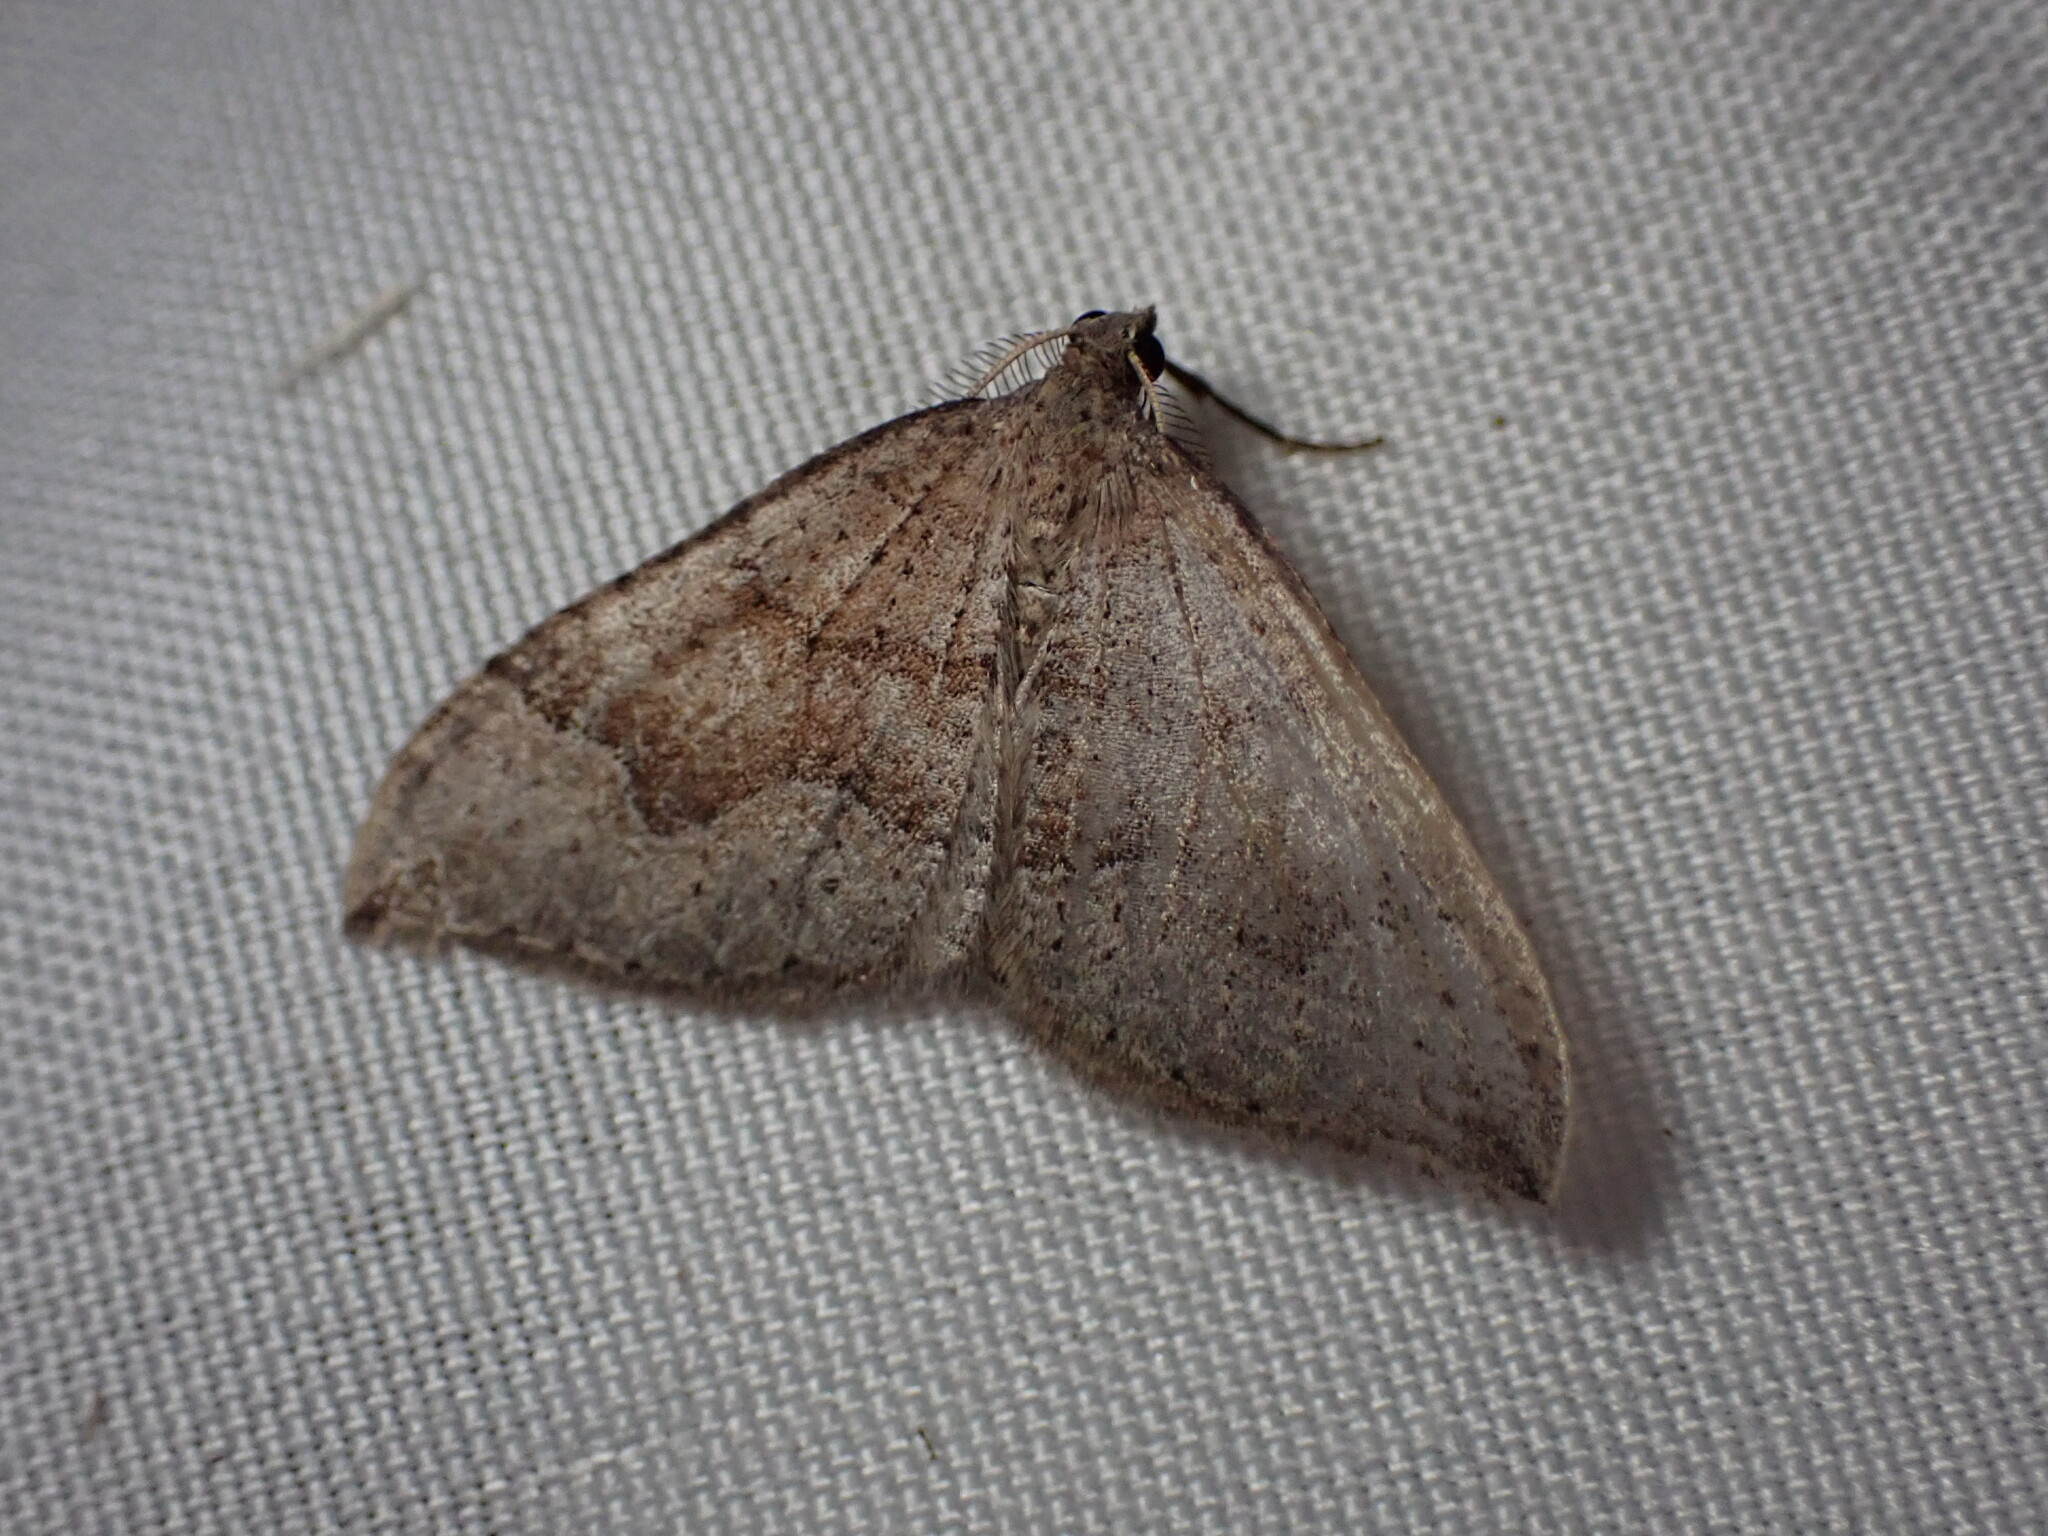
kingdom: Animalia
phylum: Arthropoda
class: Insecta
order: Lepidoptera
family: Geometridae
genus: Zenophleps
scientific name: Zenophleps lignicolorata
